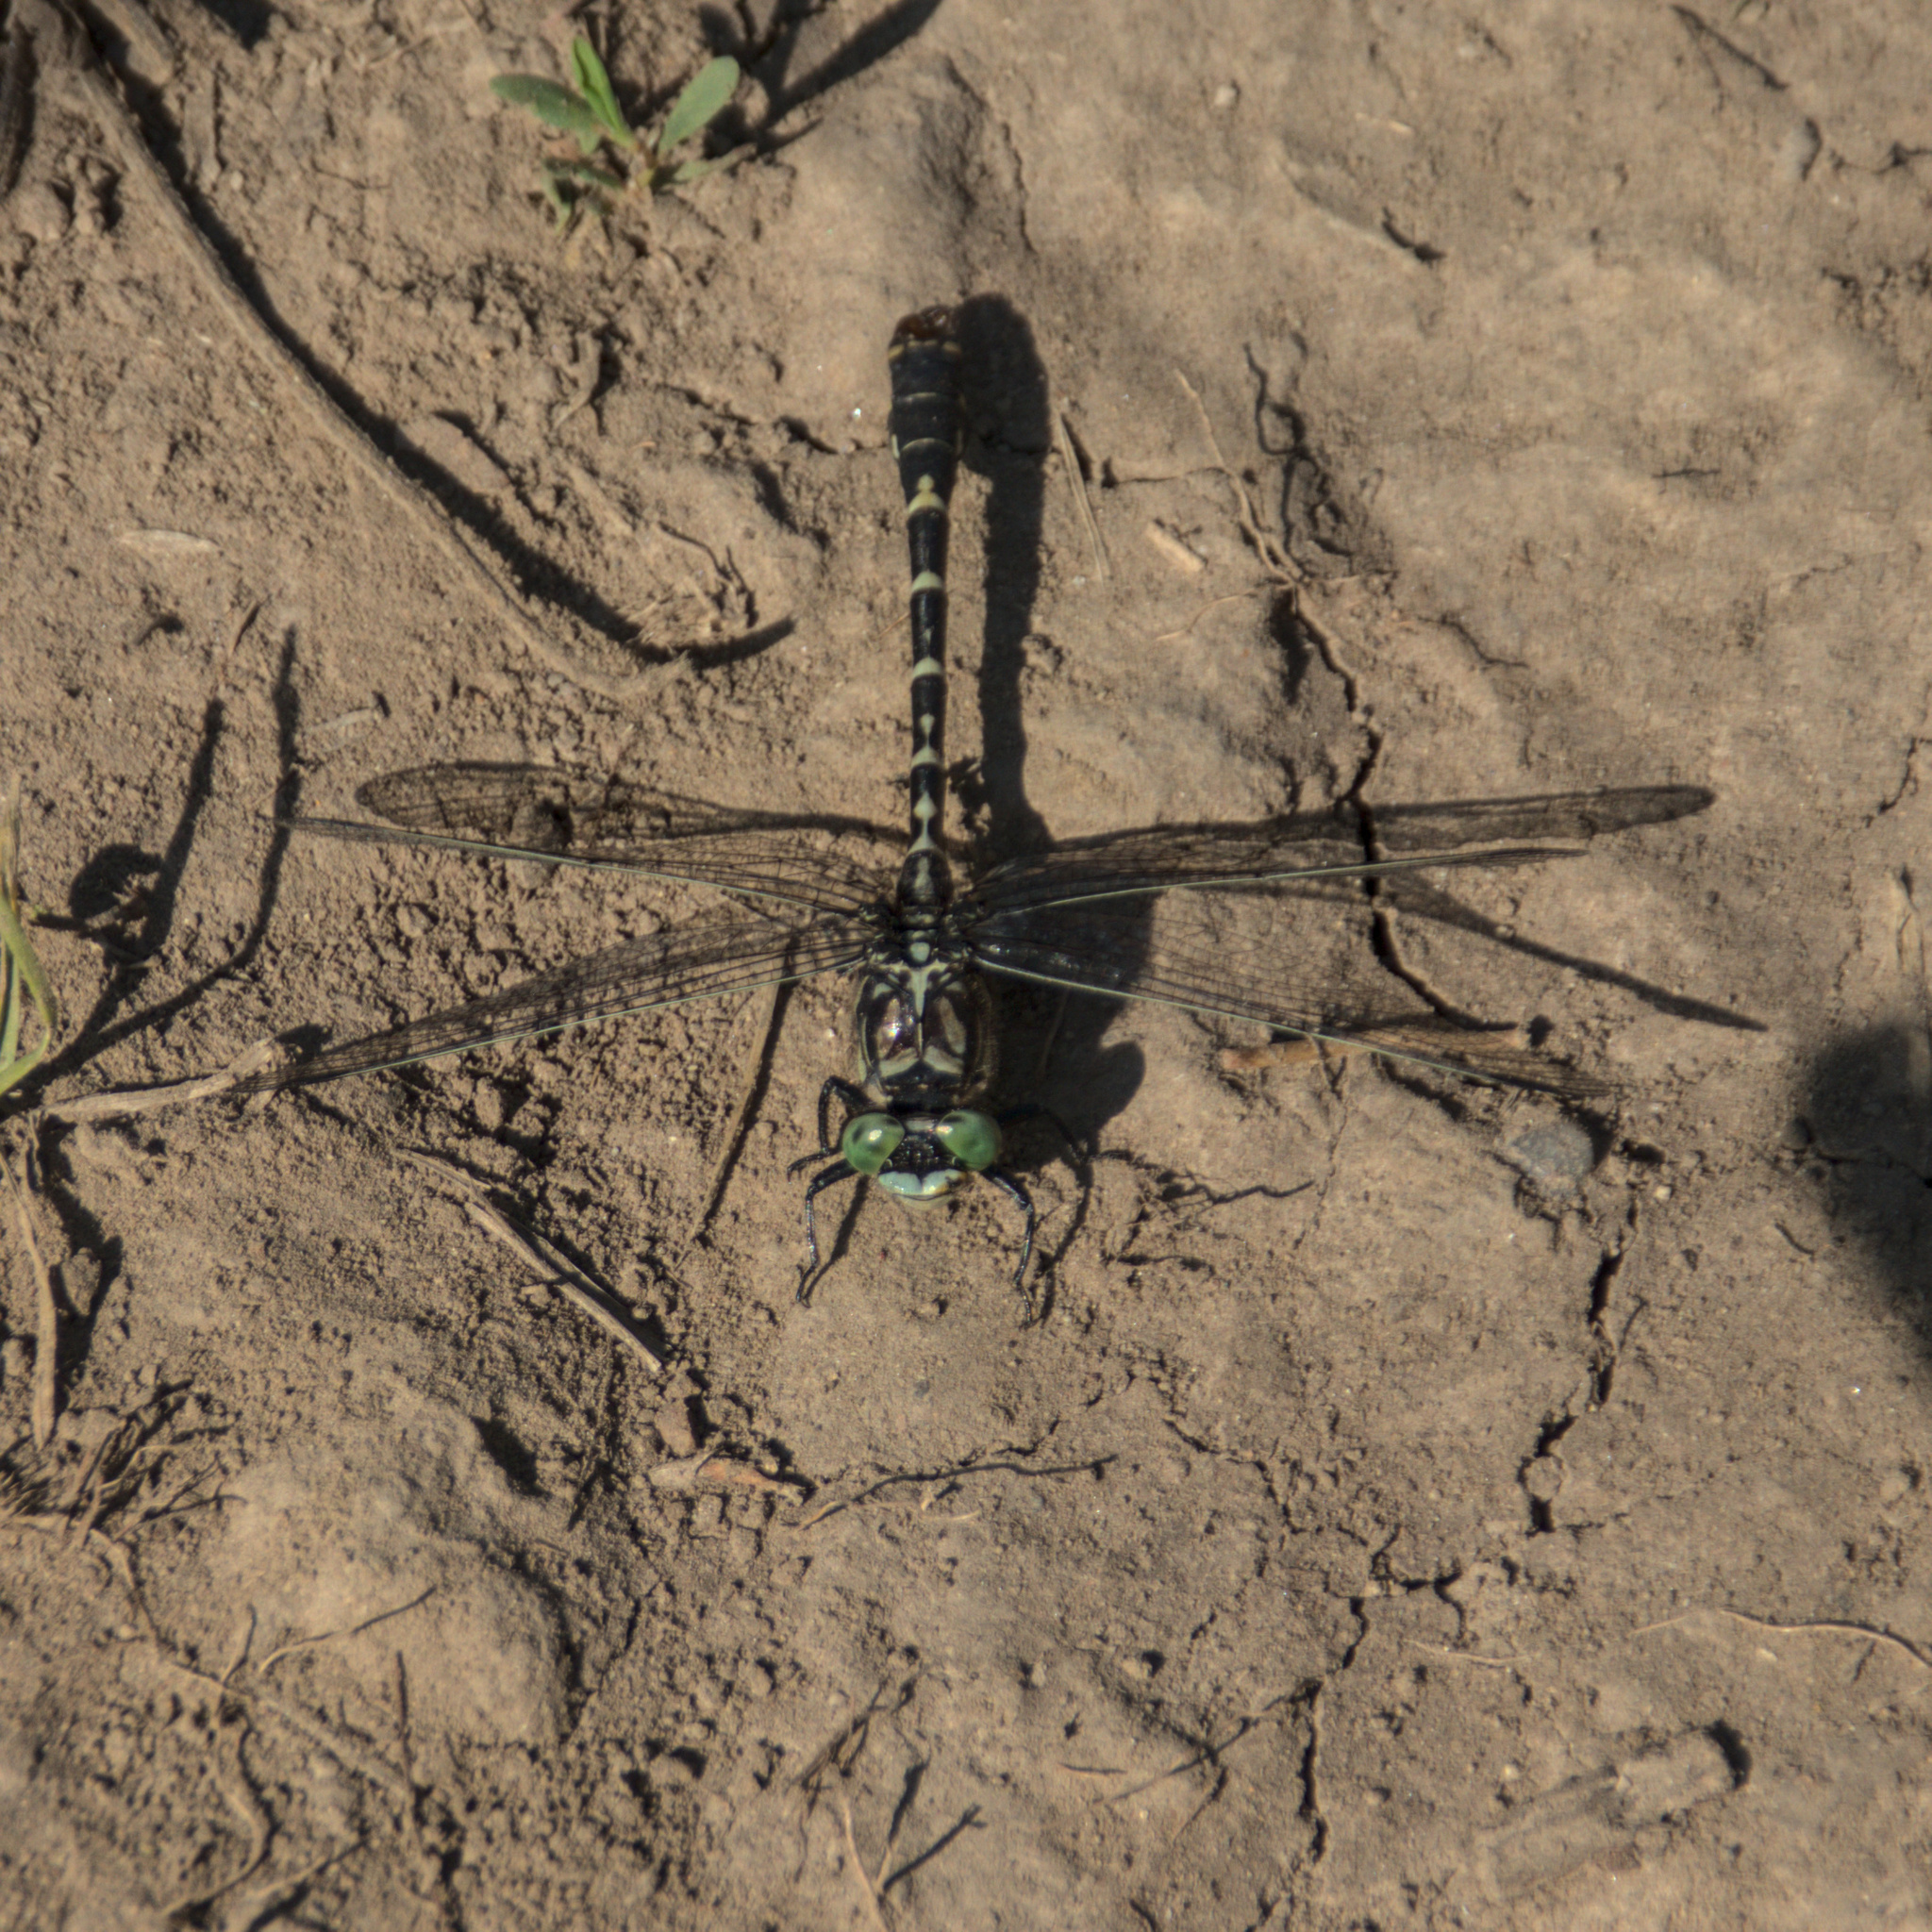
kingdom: Animalia
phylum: Arthropoda
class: Insecta
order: Odonata
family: Gomphidae
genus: Onychogomphus
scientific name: Onychogomphus forcipatus
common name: Small pincertail
